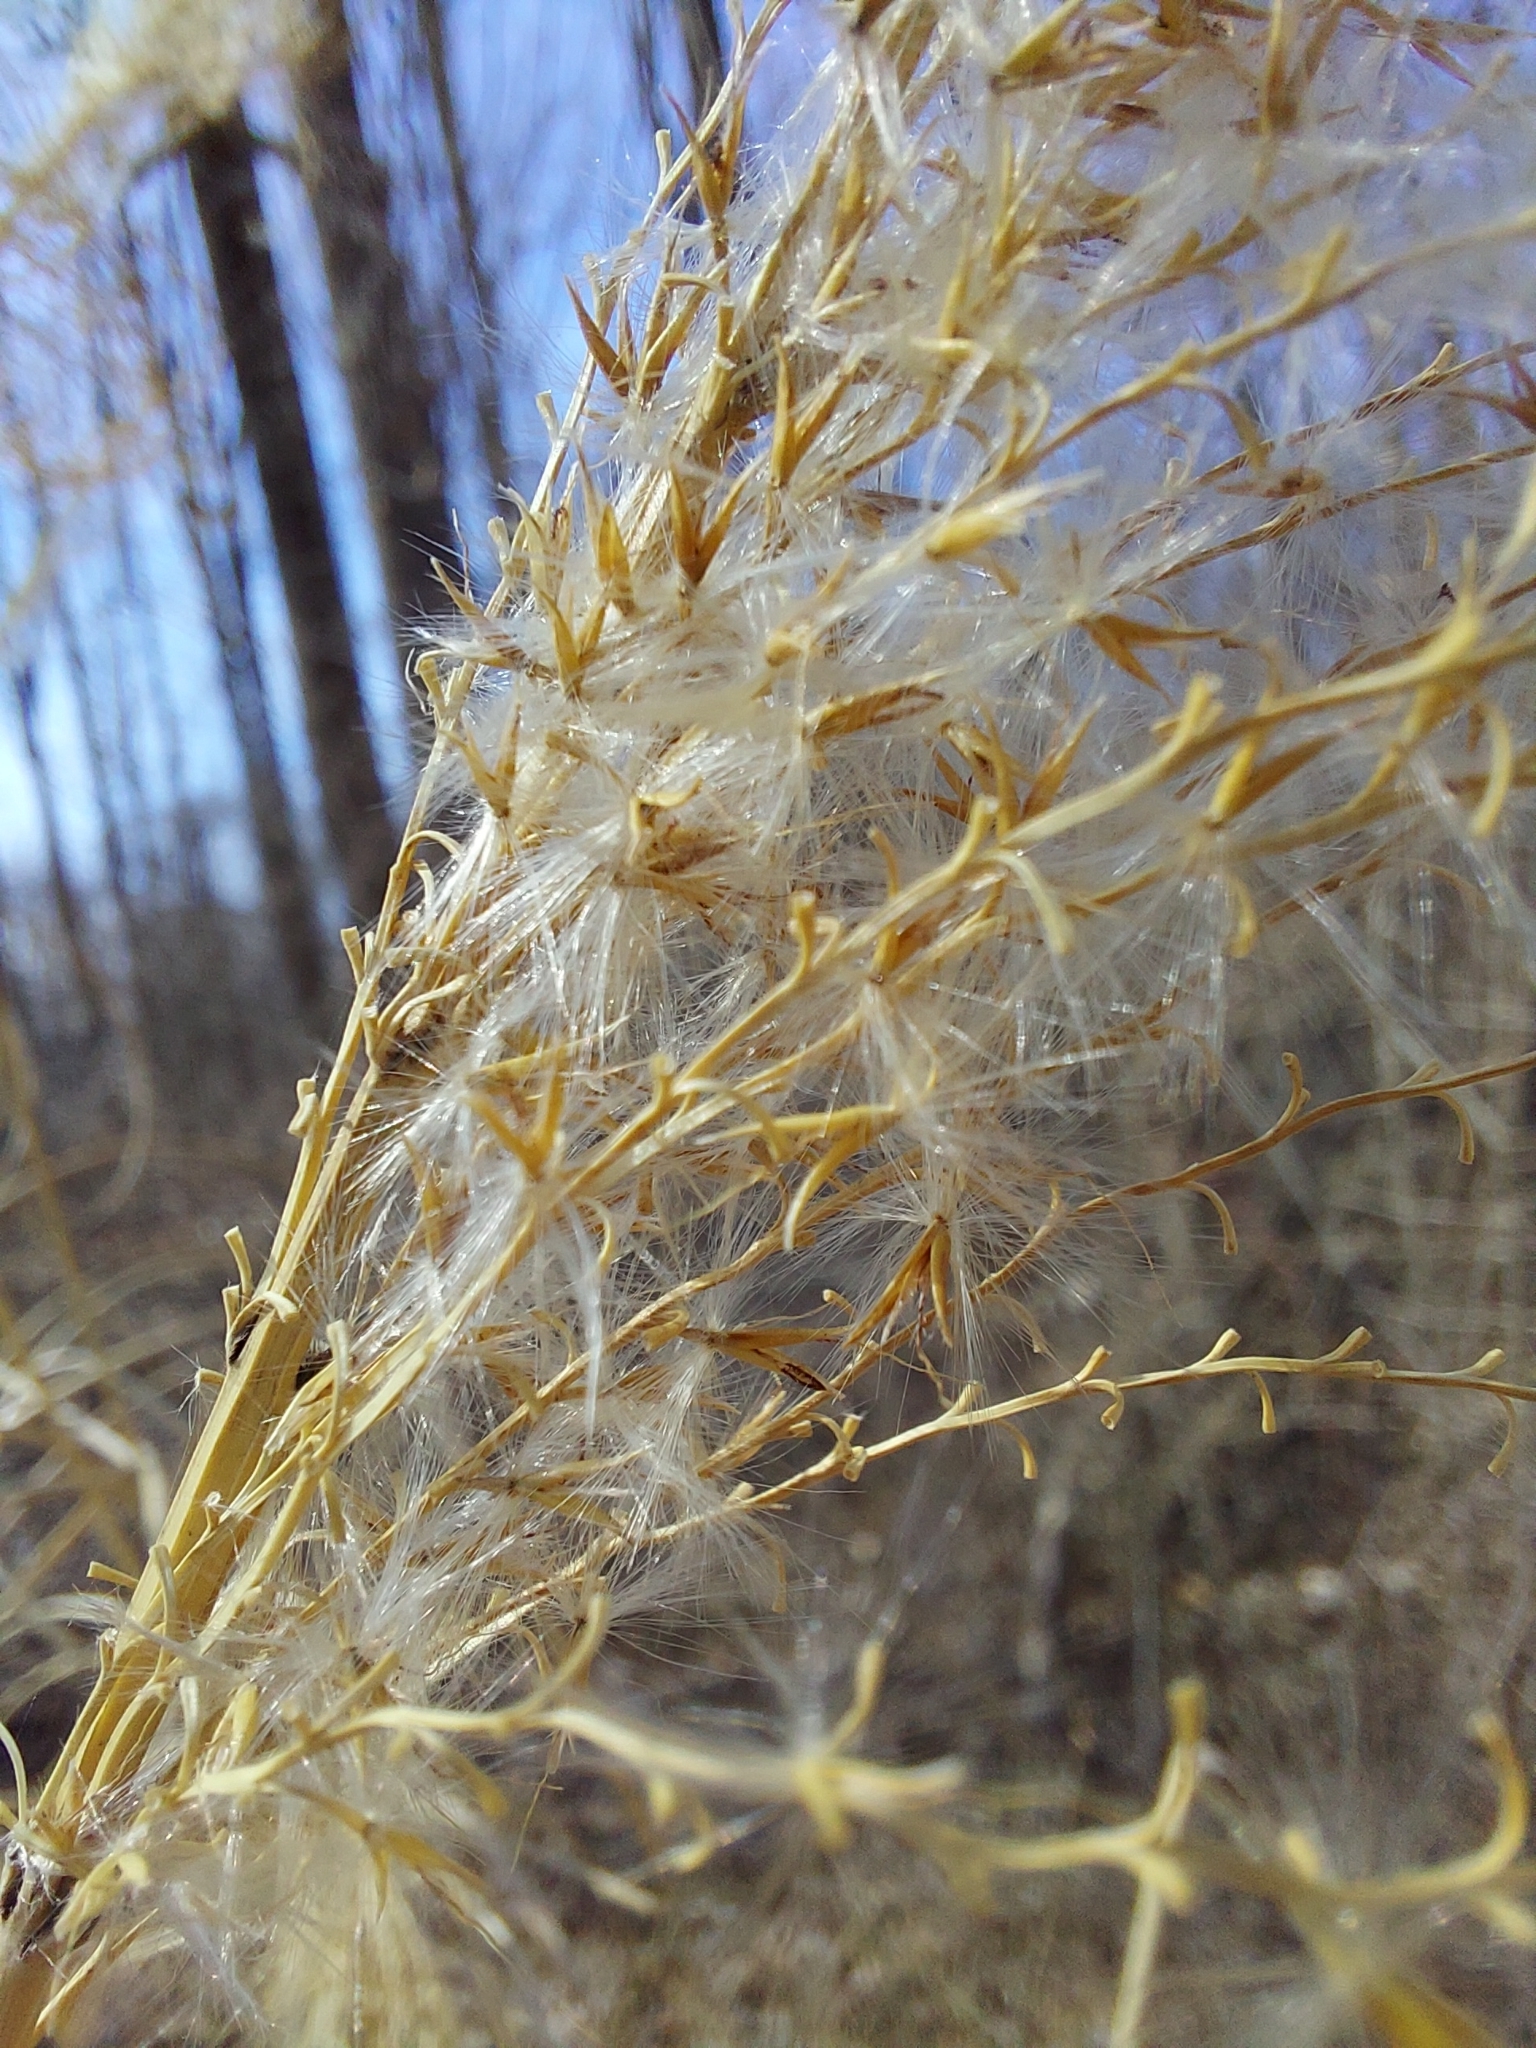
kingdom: Plantae
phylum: Tracheophyta
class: Liliopsida
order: Poales
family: Poaceae
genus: Miscanthus
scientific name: Miscanthus sinensis
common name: Chinese silvergrass
